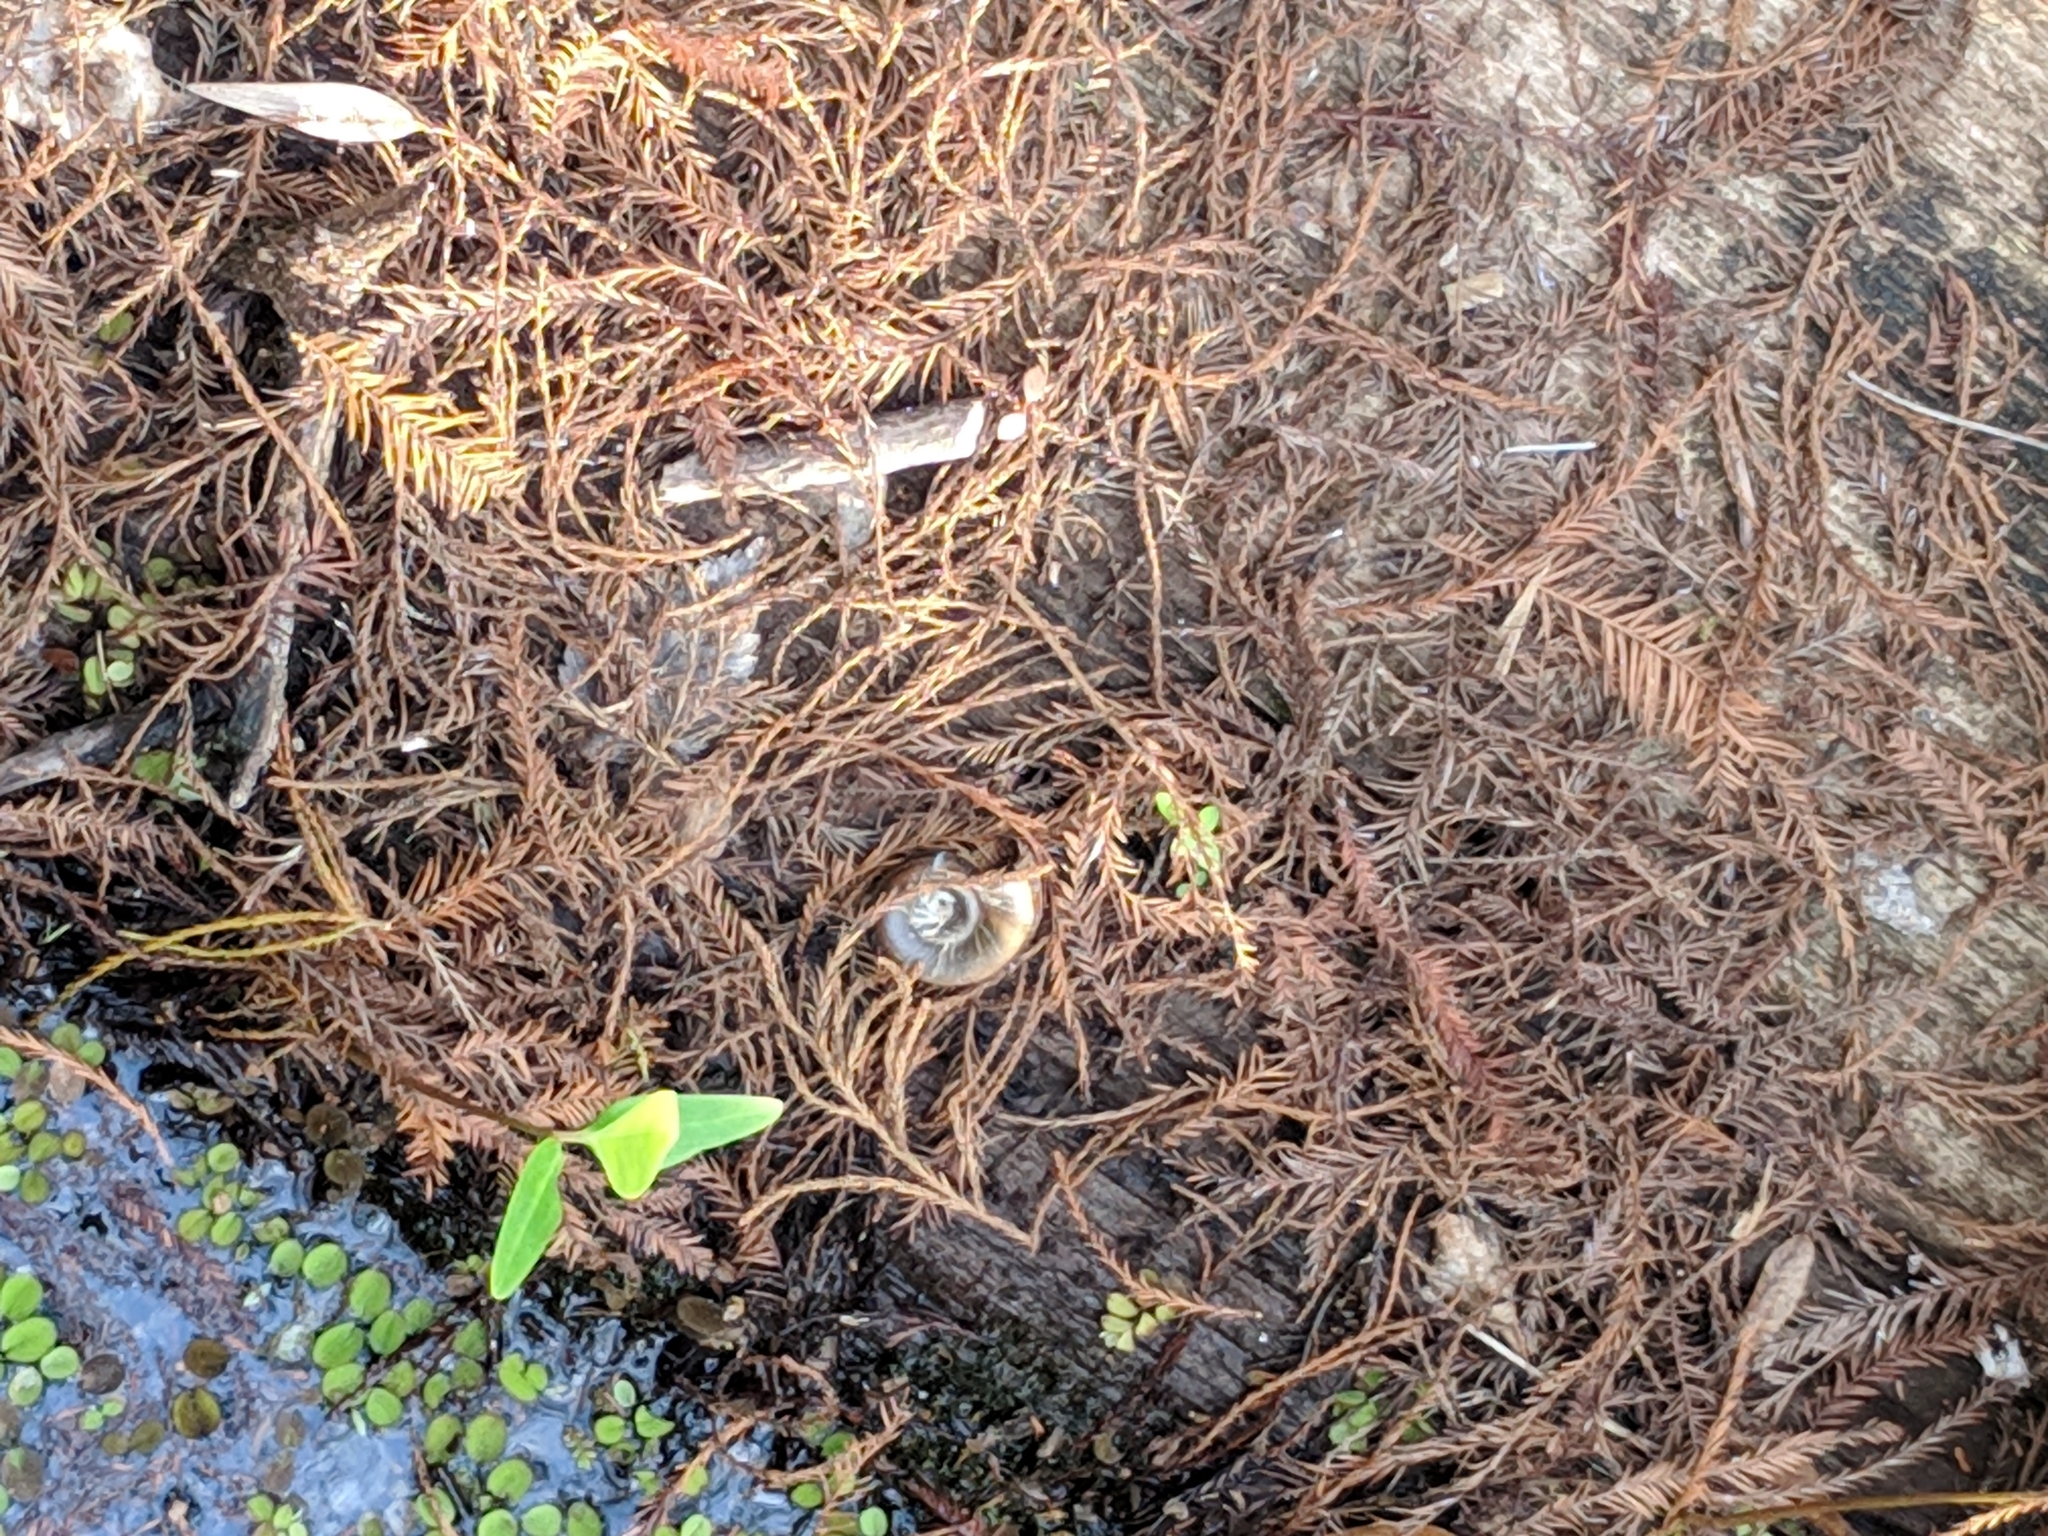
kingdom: Animalia
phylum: Mollusca
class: Gastropoda
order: Architaenioglossa
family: Ampullariidae
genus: Marisa
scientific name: Marisa cornuarietis
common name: Giant ramshorn snail
